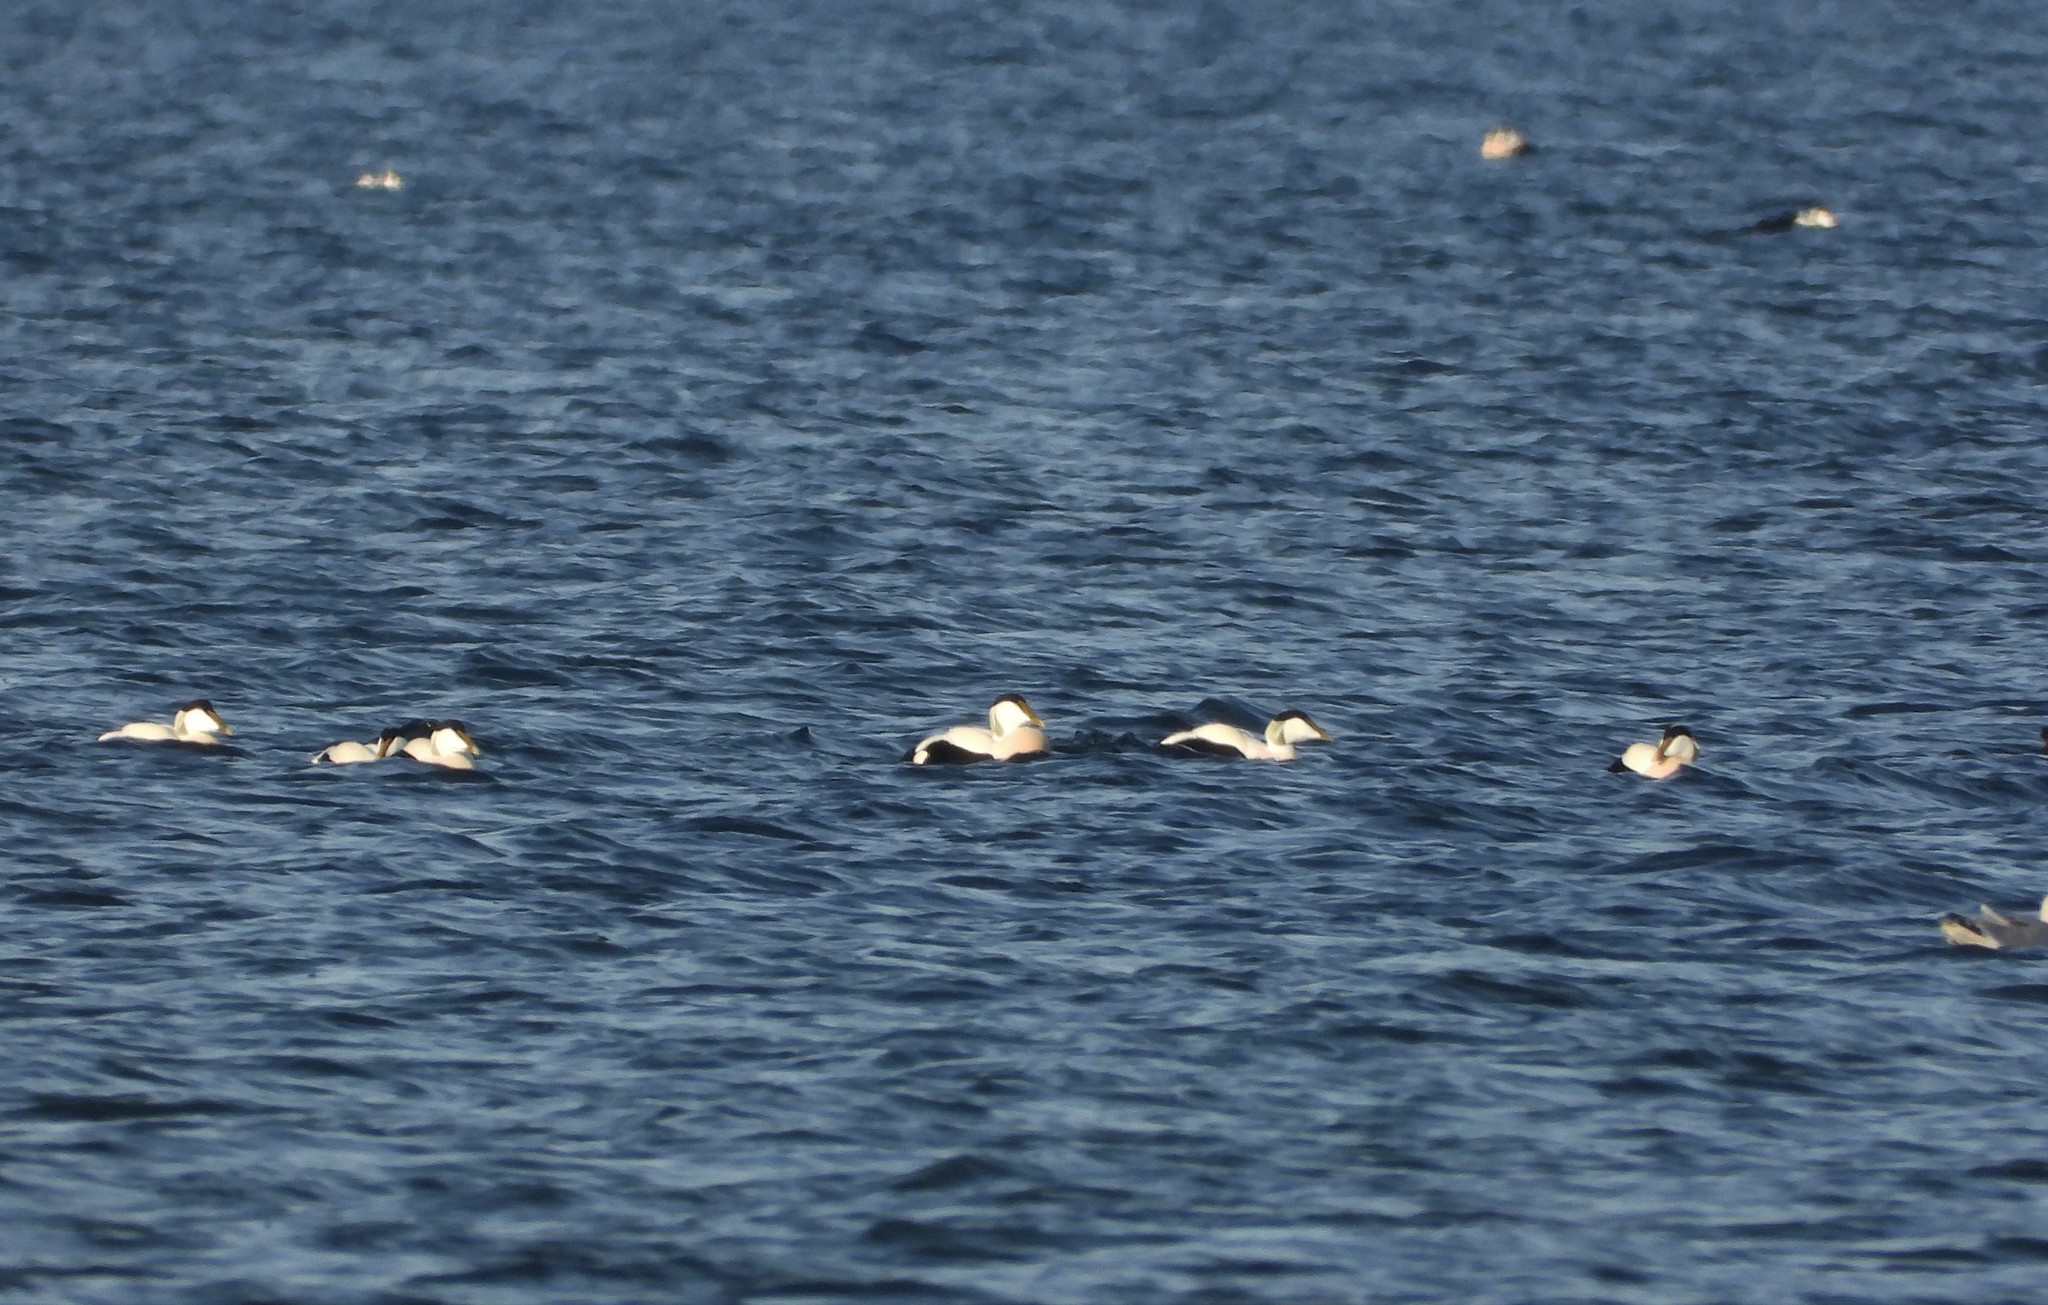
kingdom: Animalia
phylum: Chordata
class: Aves
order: Anseriformes
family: Anatidae
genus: Somateria
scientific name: Somateria mollissima
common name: Common eider
